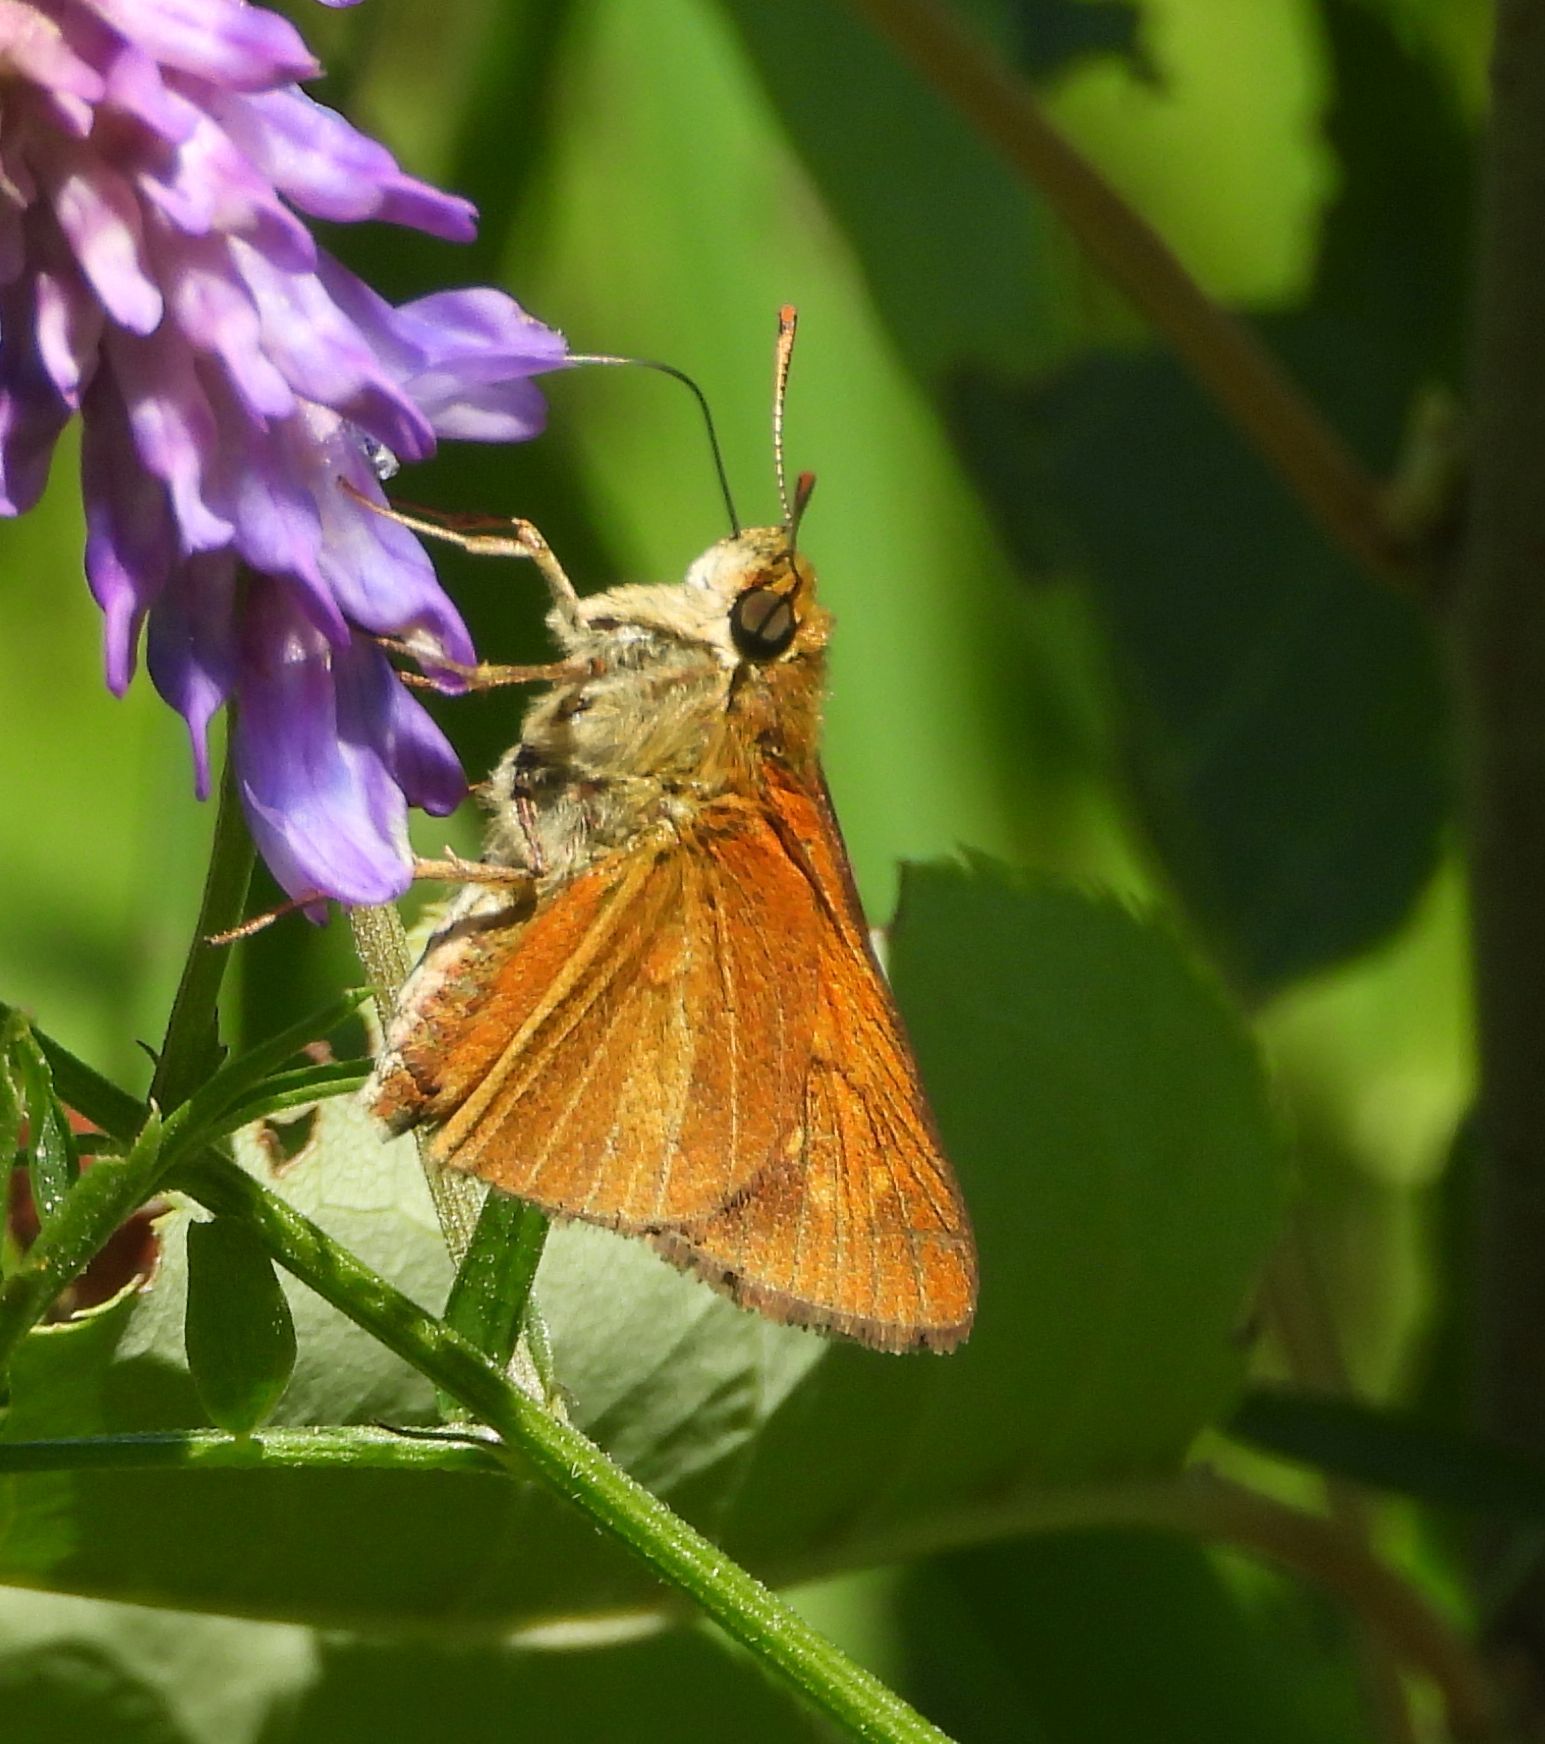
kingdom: Animalia
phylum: Arthropoda
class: Insecta
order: Lepidoptera
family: Hesperiidae
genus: Euphyes
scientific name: Euphyes dion
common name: Dion skipper
